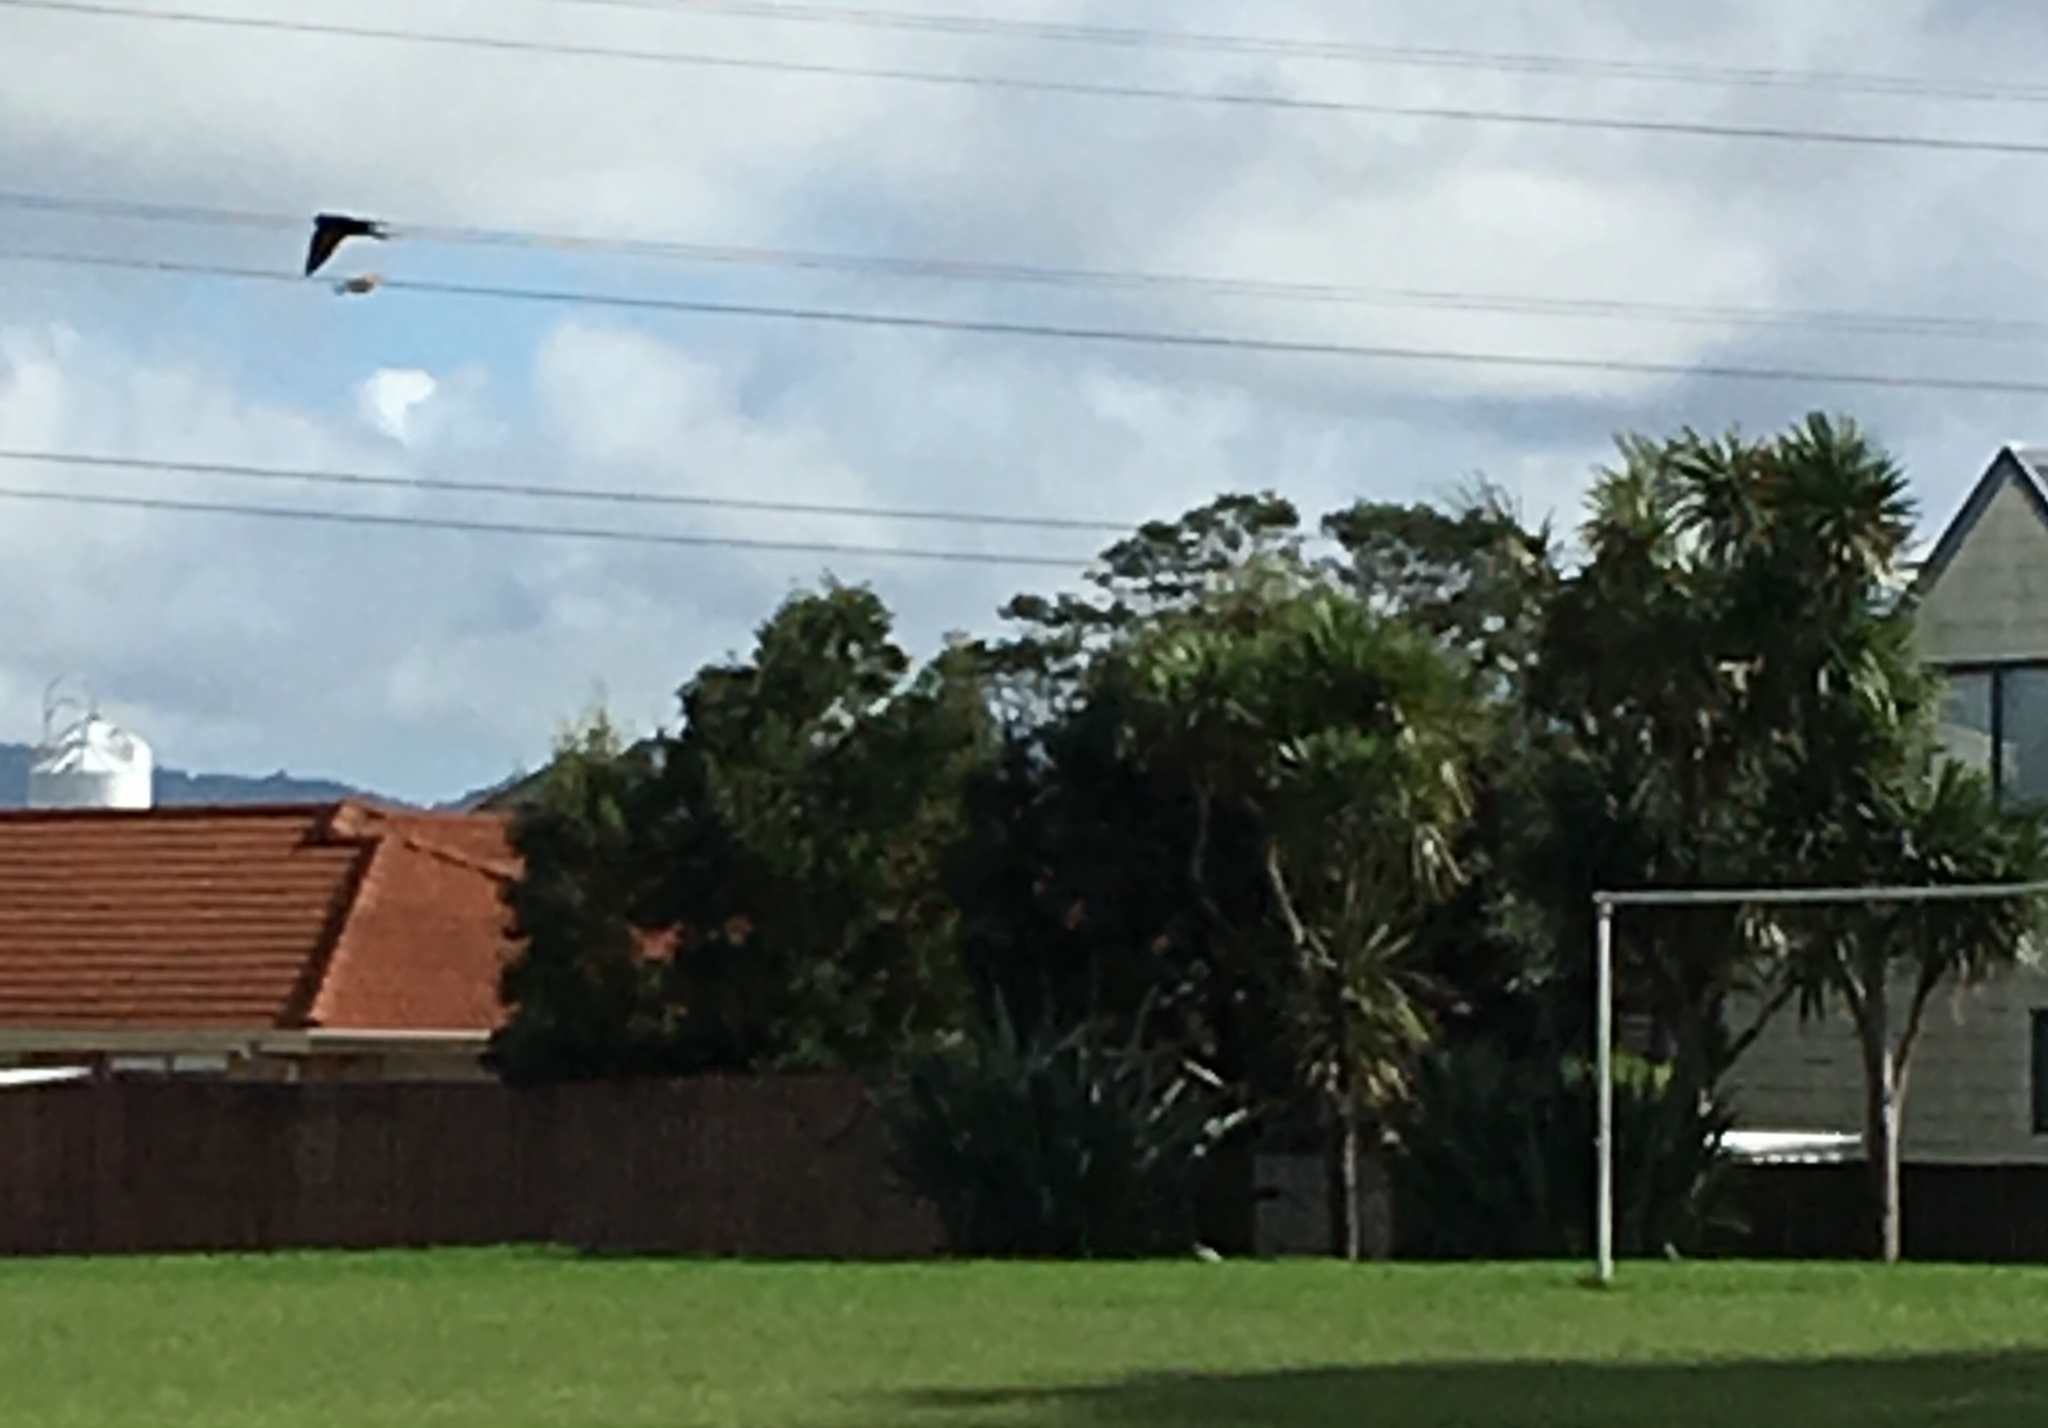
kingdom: Animalia
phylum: Chordata
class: Aves
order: Passeriformes
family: Hirundinidae
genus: Hirundo
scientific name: Hirundo neoxena
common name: Welcome swallow
